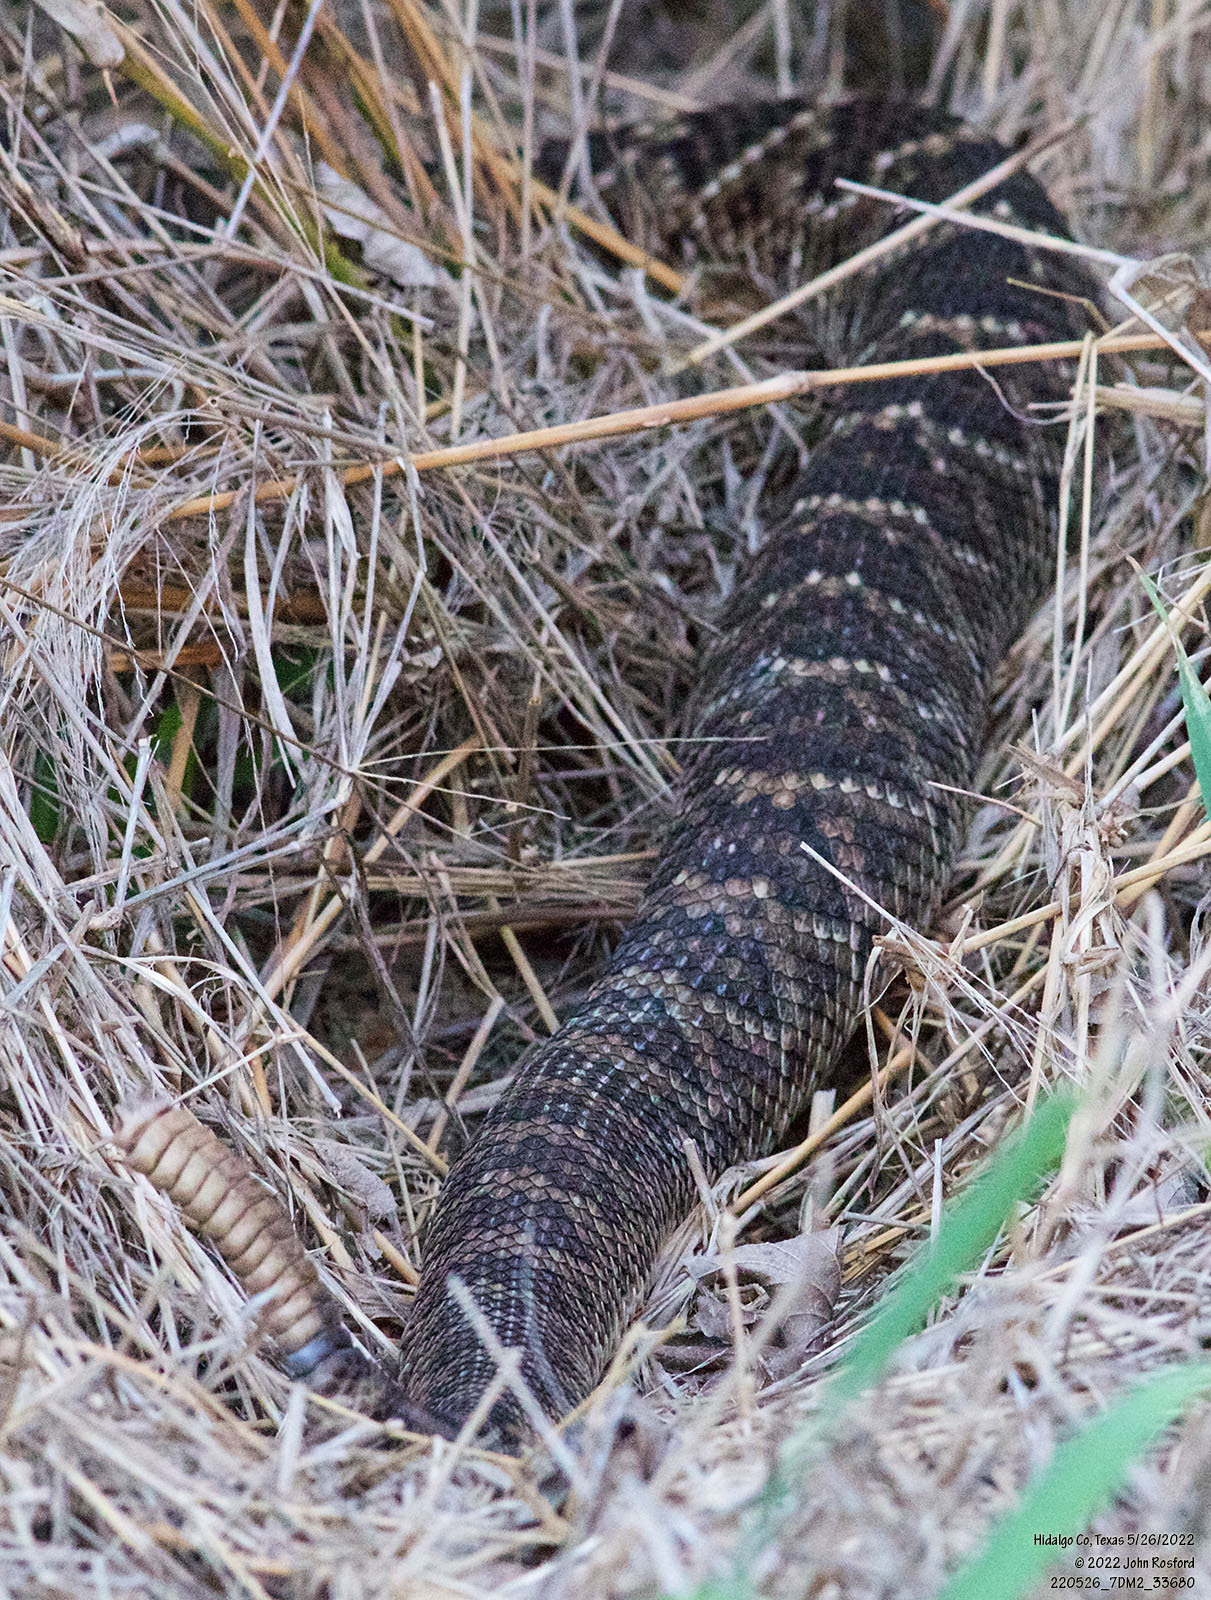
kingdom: Animalia
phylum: Chordata
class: Squamata
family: Viperidae
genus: Crotalus
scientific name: Crotalus atrox
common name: Western diamond-backed rattlesnake
